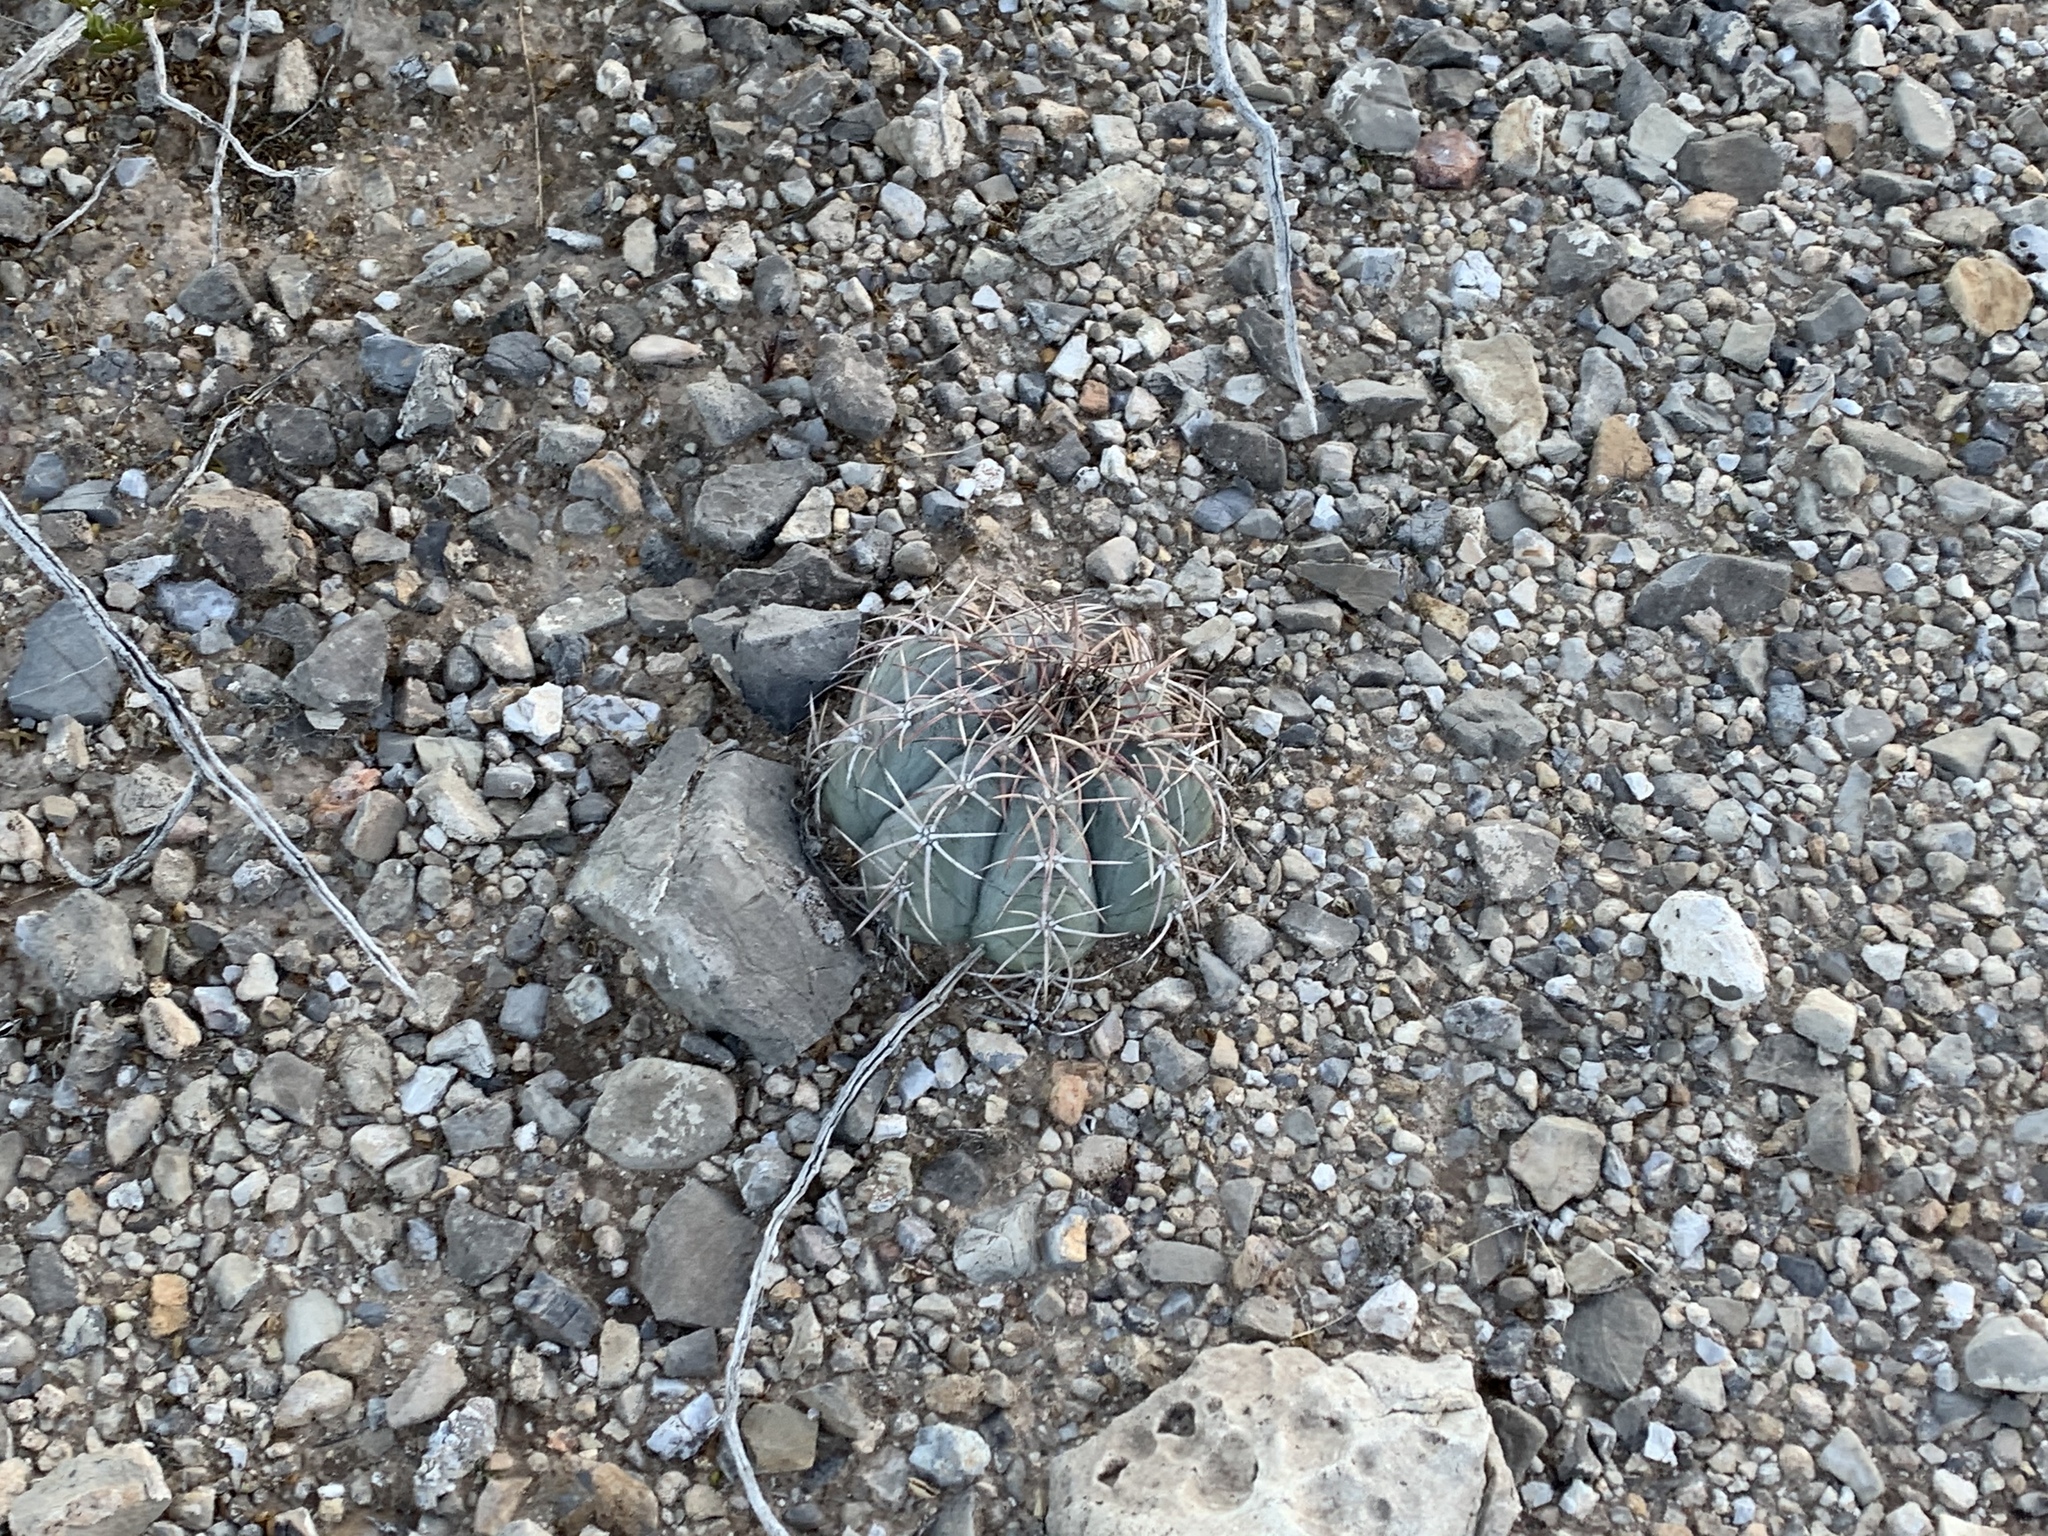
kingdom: Plantae
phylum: Tracheophyta
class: Magnoliopsida
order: Caryophyllales
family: Cactaceae
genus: Echinocactus
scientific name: Echinocactus horizonthalonius
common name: Devilshead
